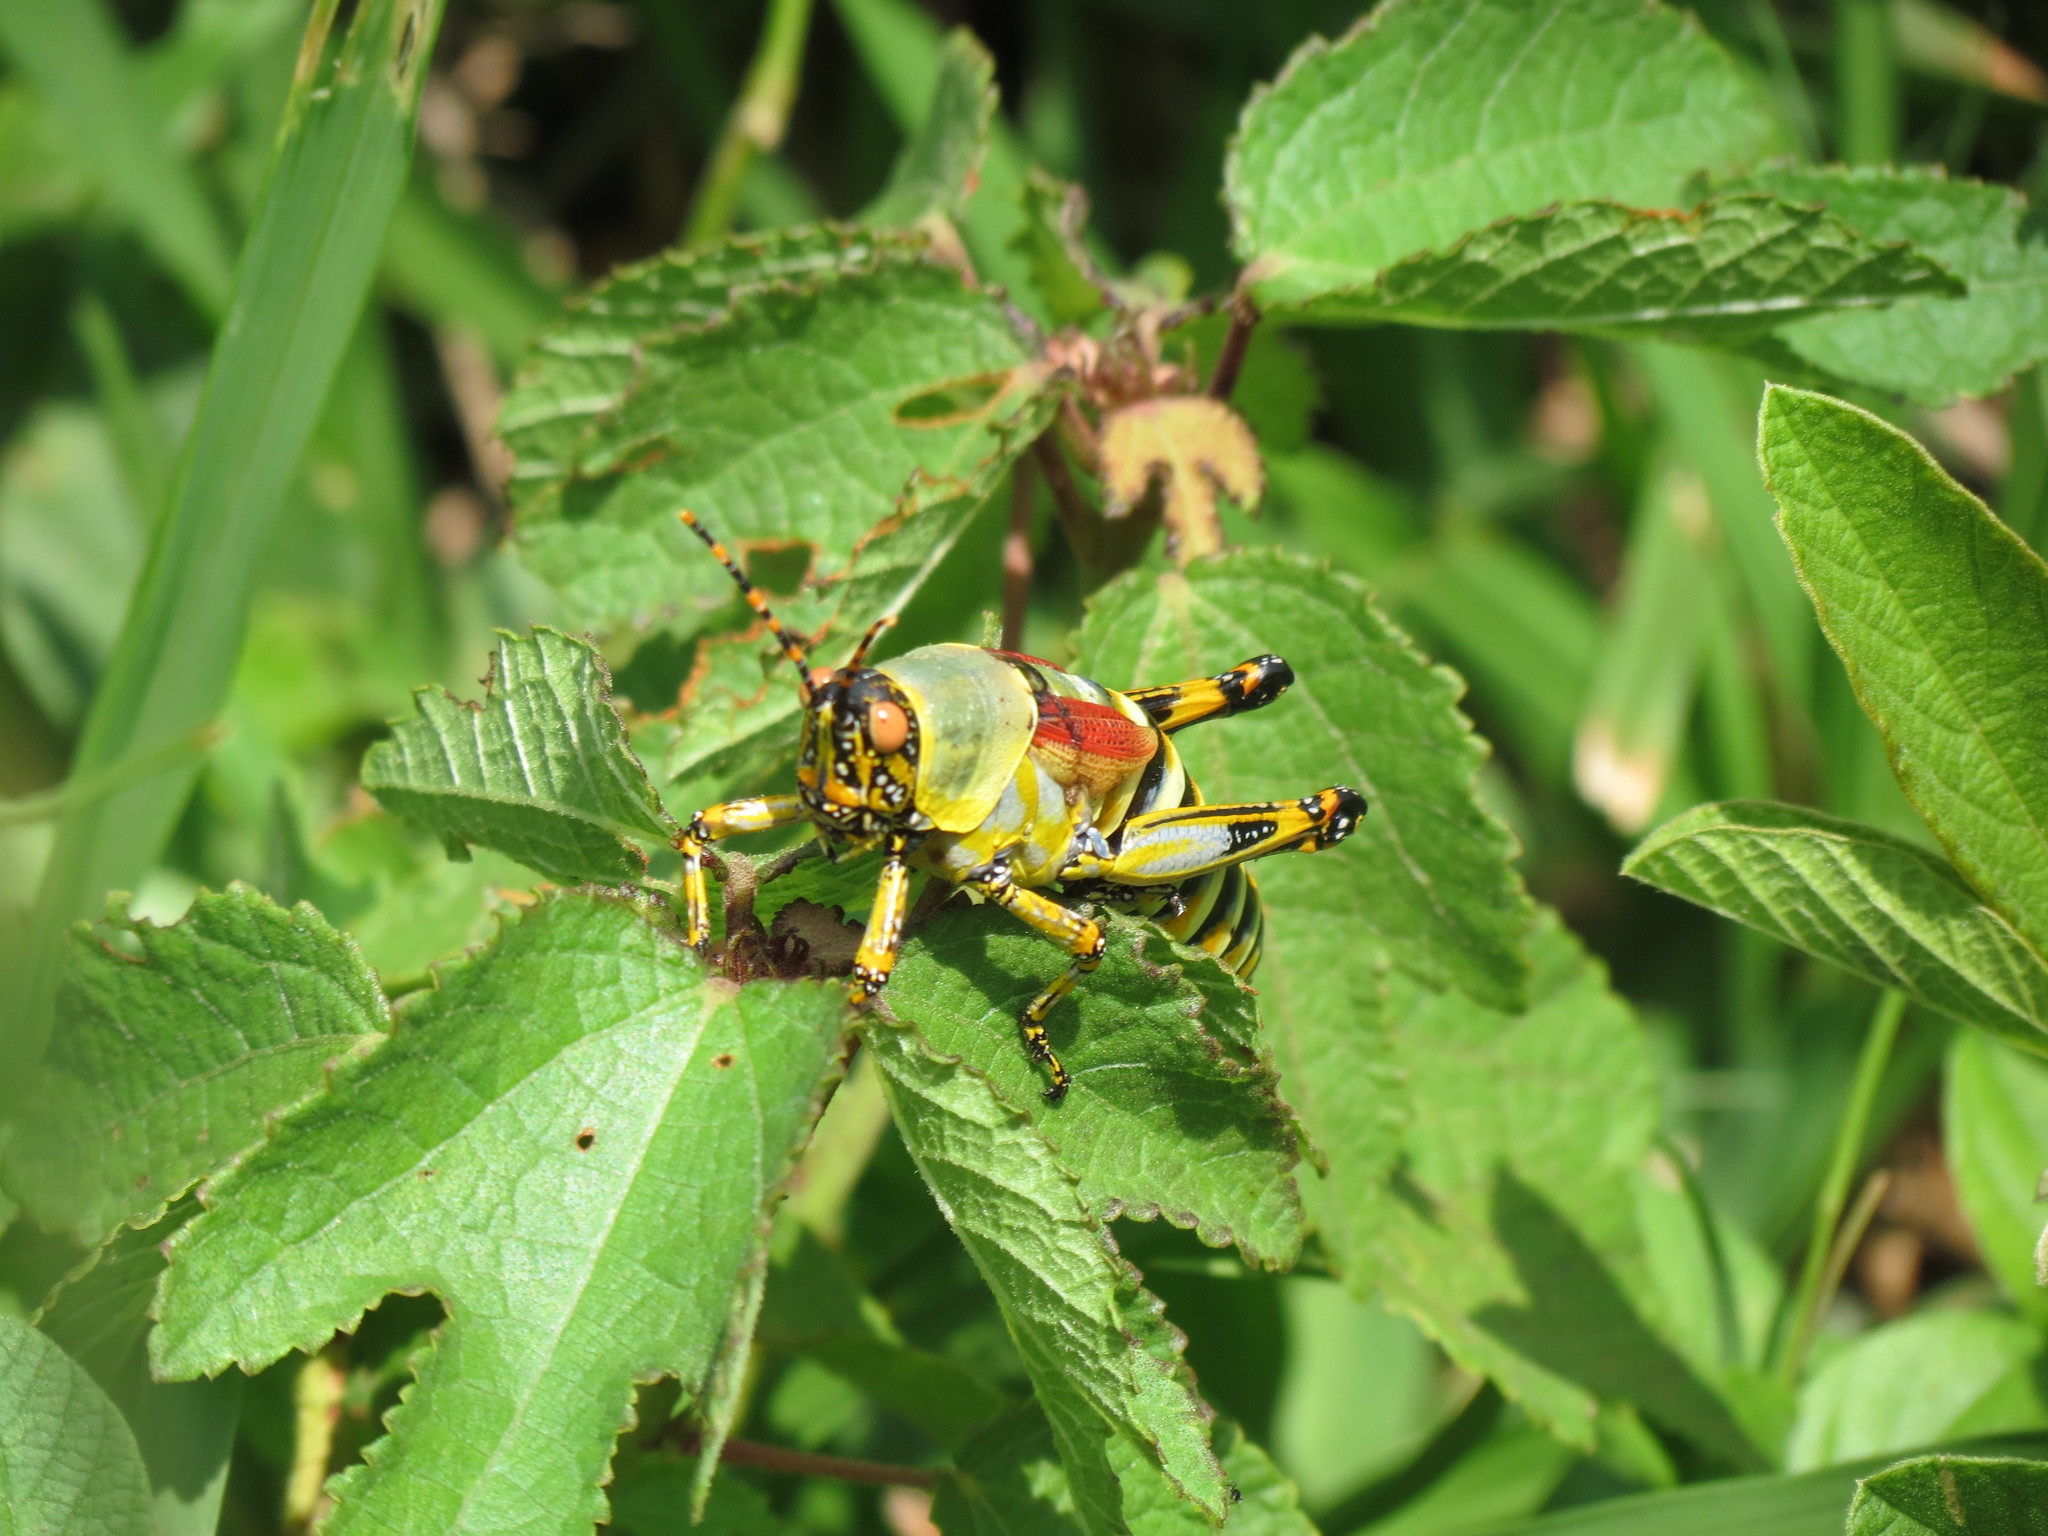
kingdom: Animalia
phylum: Arthropoda
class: Insecta
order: Orthoptera
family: Pyrgomorphidae
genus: Zonocerus
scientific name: Zonocerus elegans
